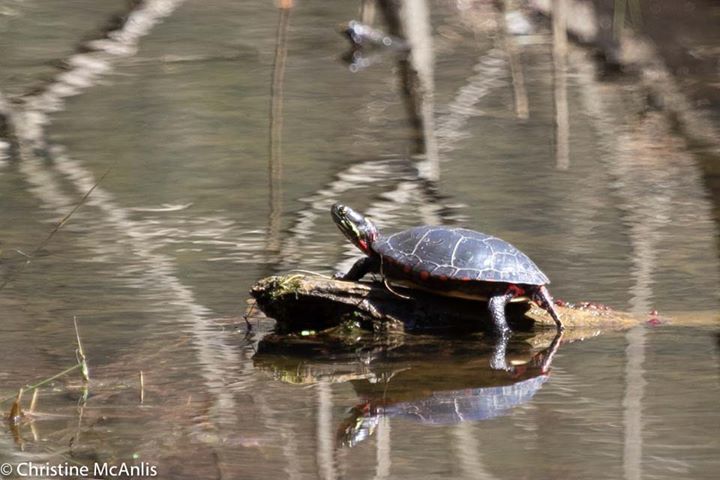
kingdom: Animalia
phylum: Chordata
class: Testudines
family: Emydidae
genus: Chrysemys
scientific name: Chrysemys picta
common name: Painted turtle
